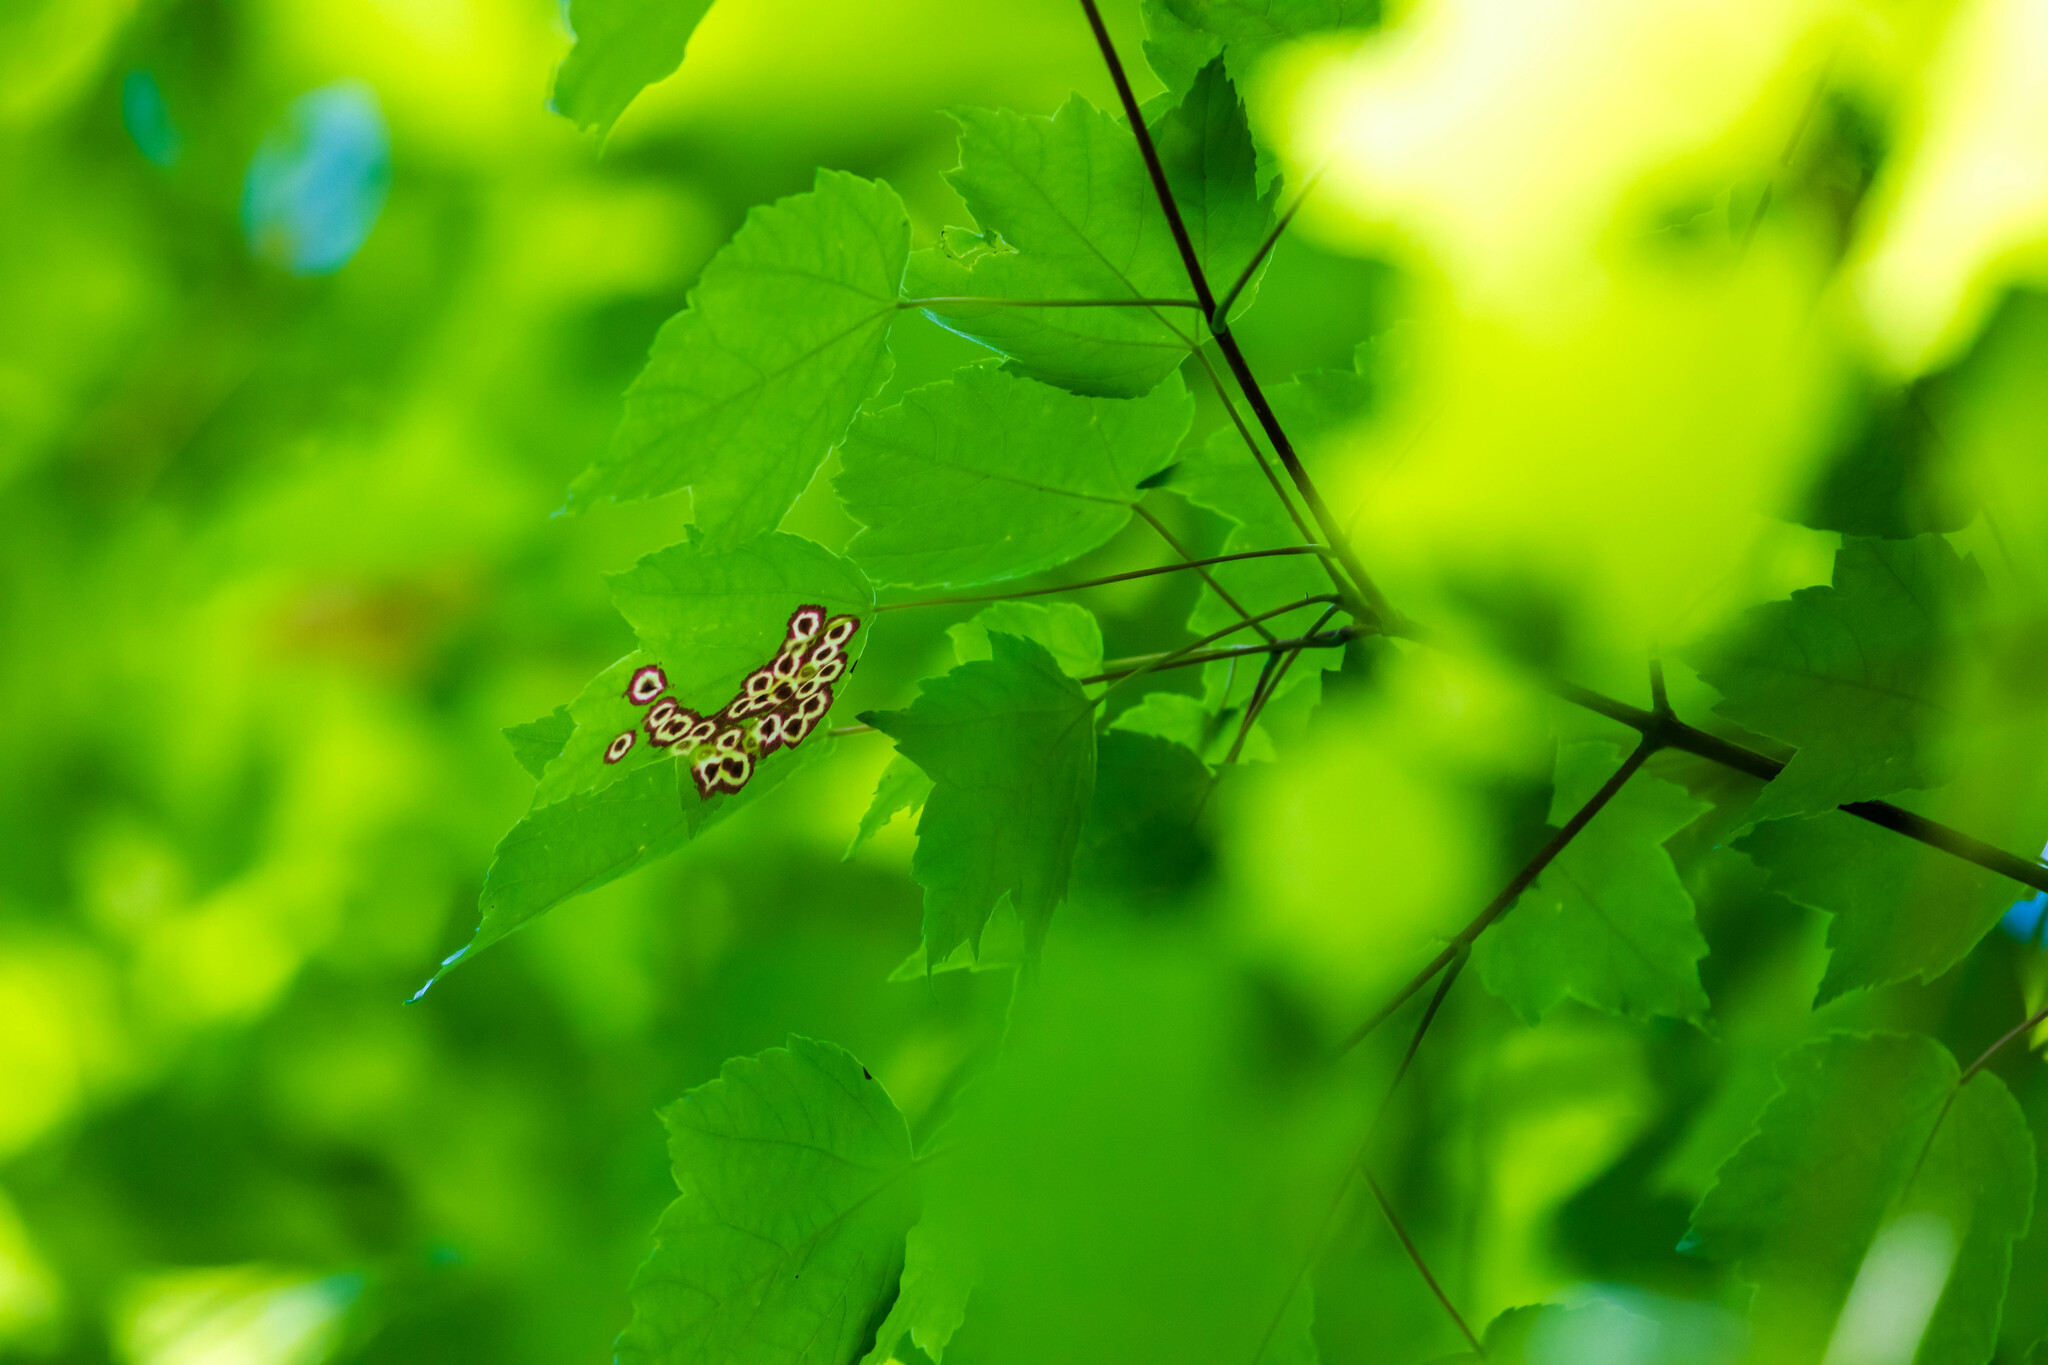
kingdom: Animalia
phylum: Arthropoda
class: Insecta
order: Diptera
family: Cecidomyiidae
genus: Acericecis
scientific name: Acericecis ocellaris
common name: Ocellate gall midge
